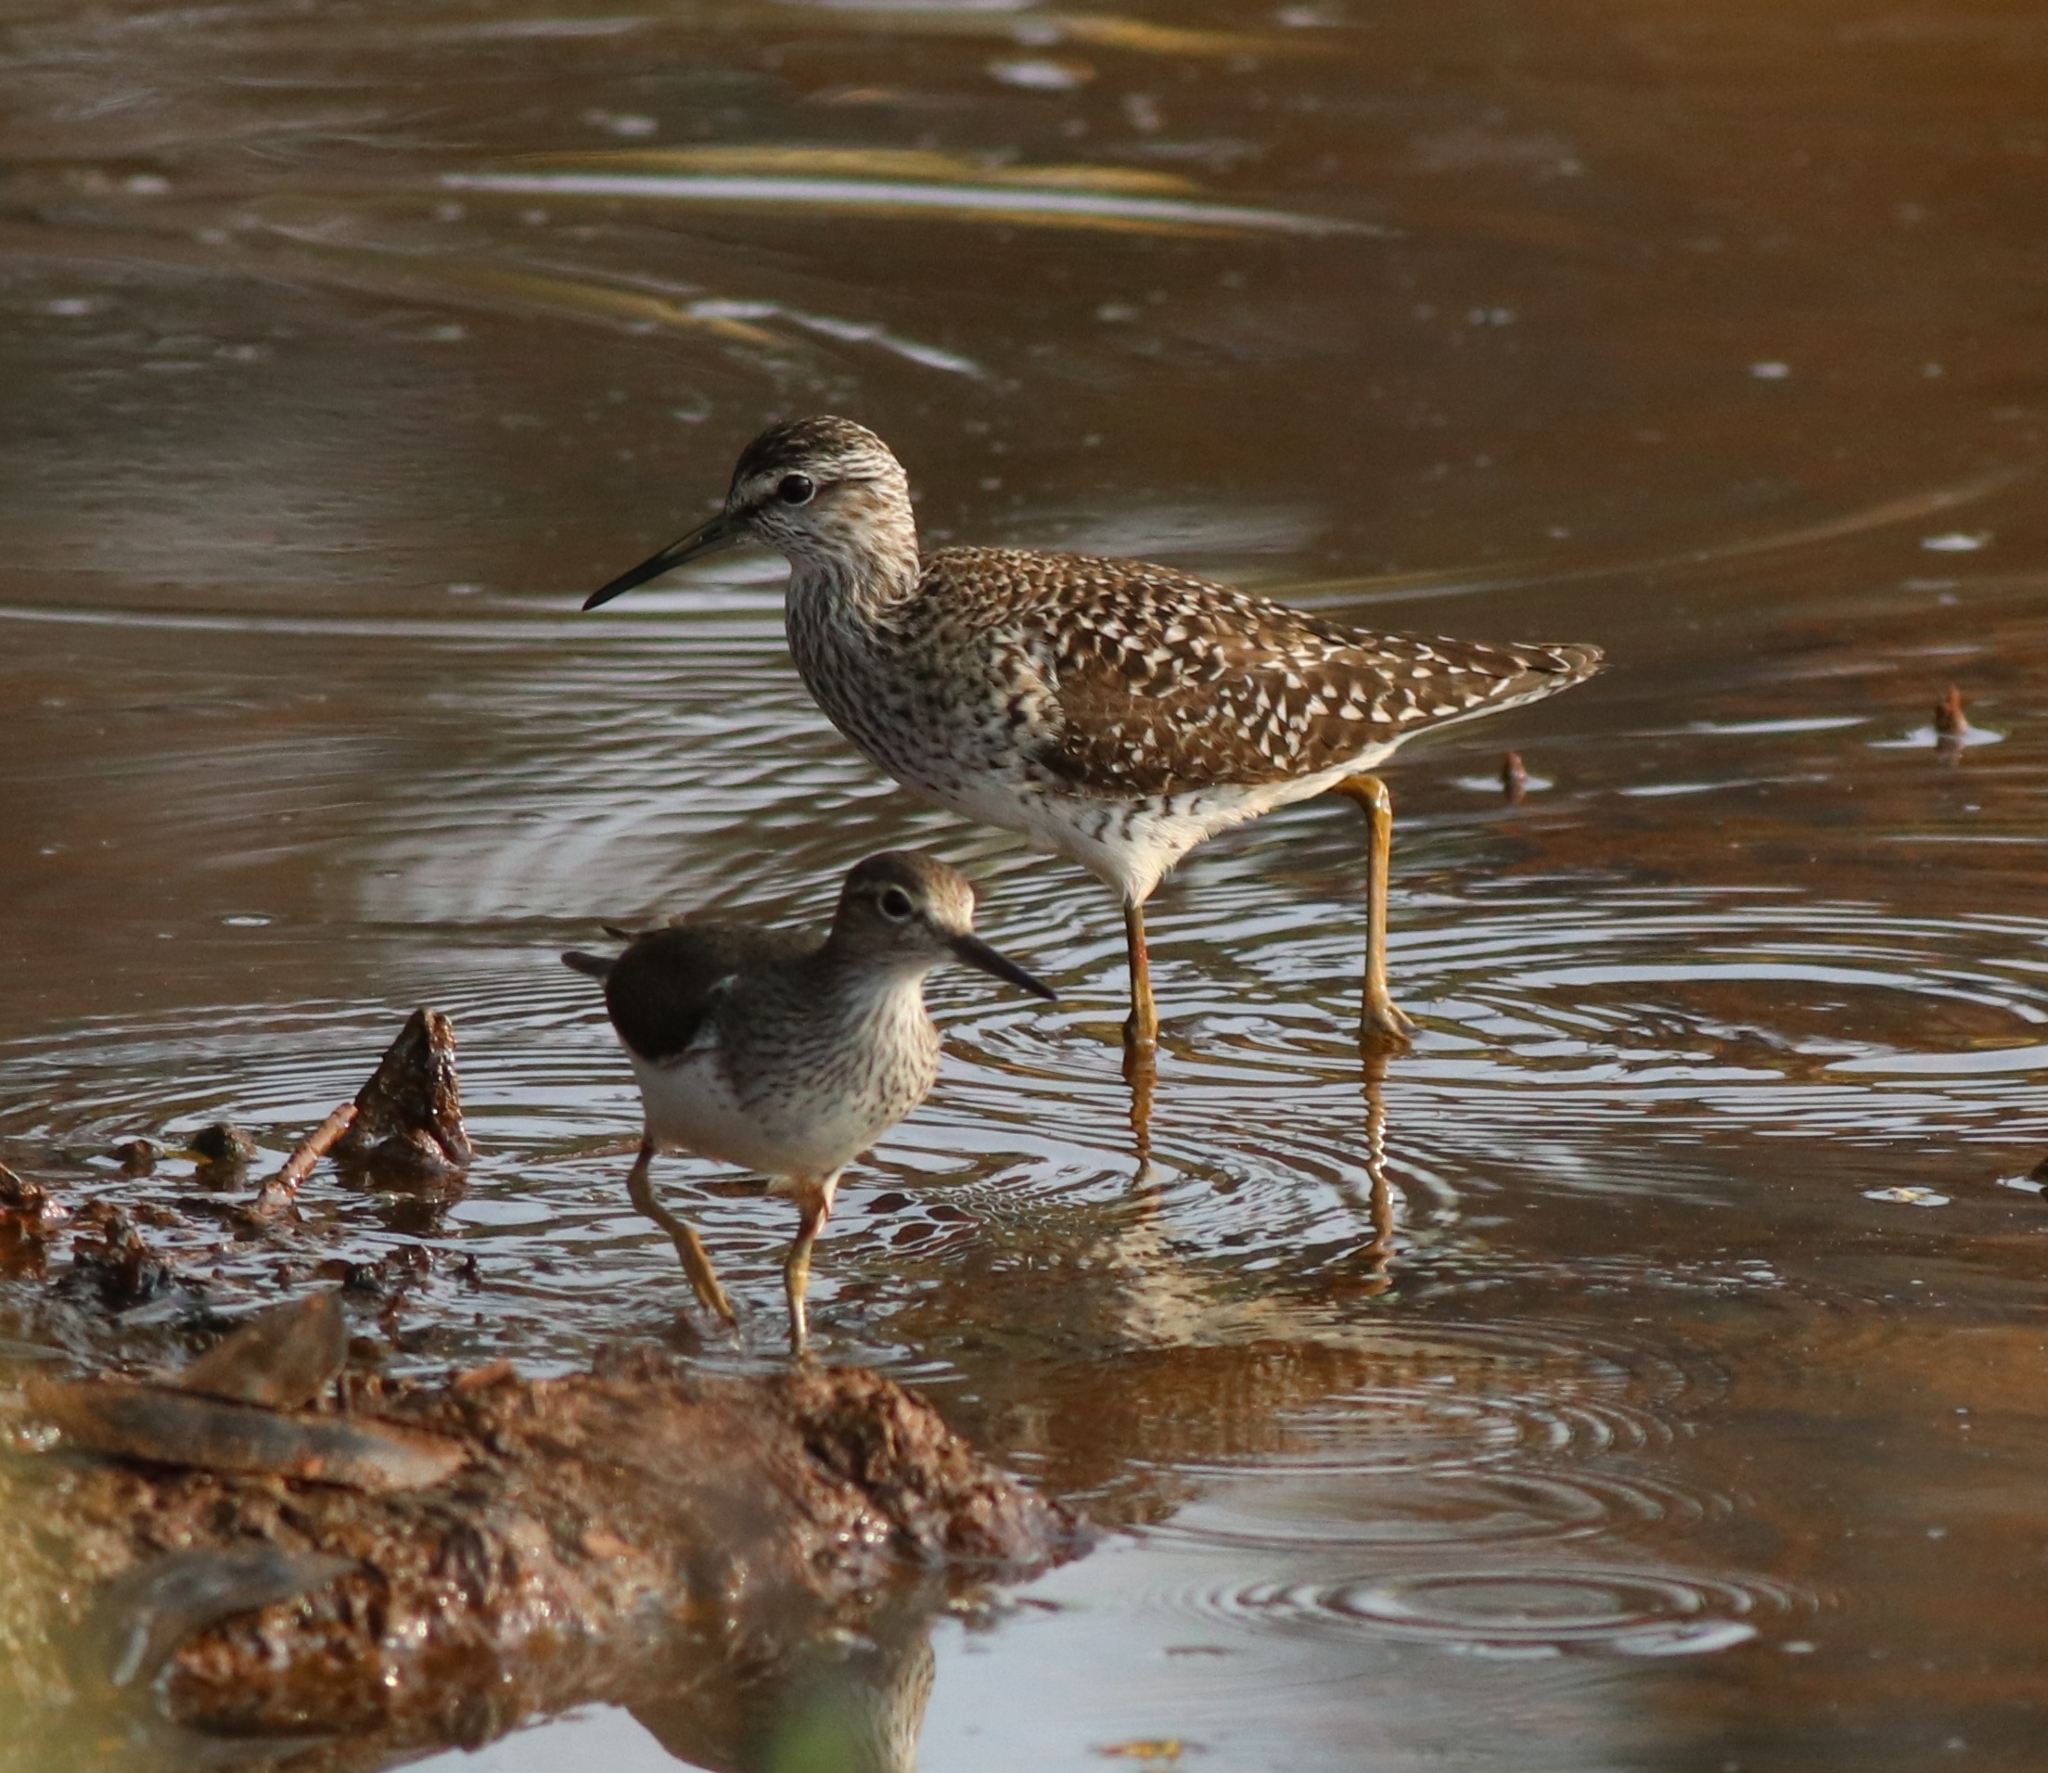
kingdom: Animalia
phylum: Chordata
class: Aves
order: Charadriiformes
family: Scolopacidae
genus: Actitis
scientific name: Actitis hypoleucos
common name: Common sandpiper
